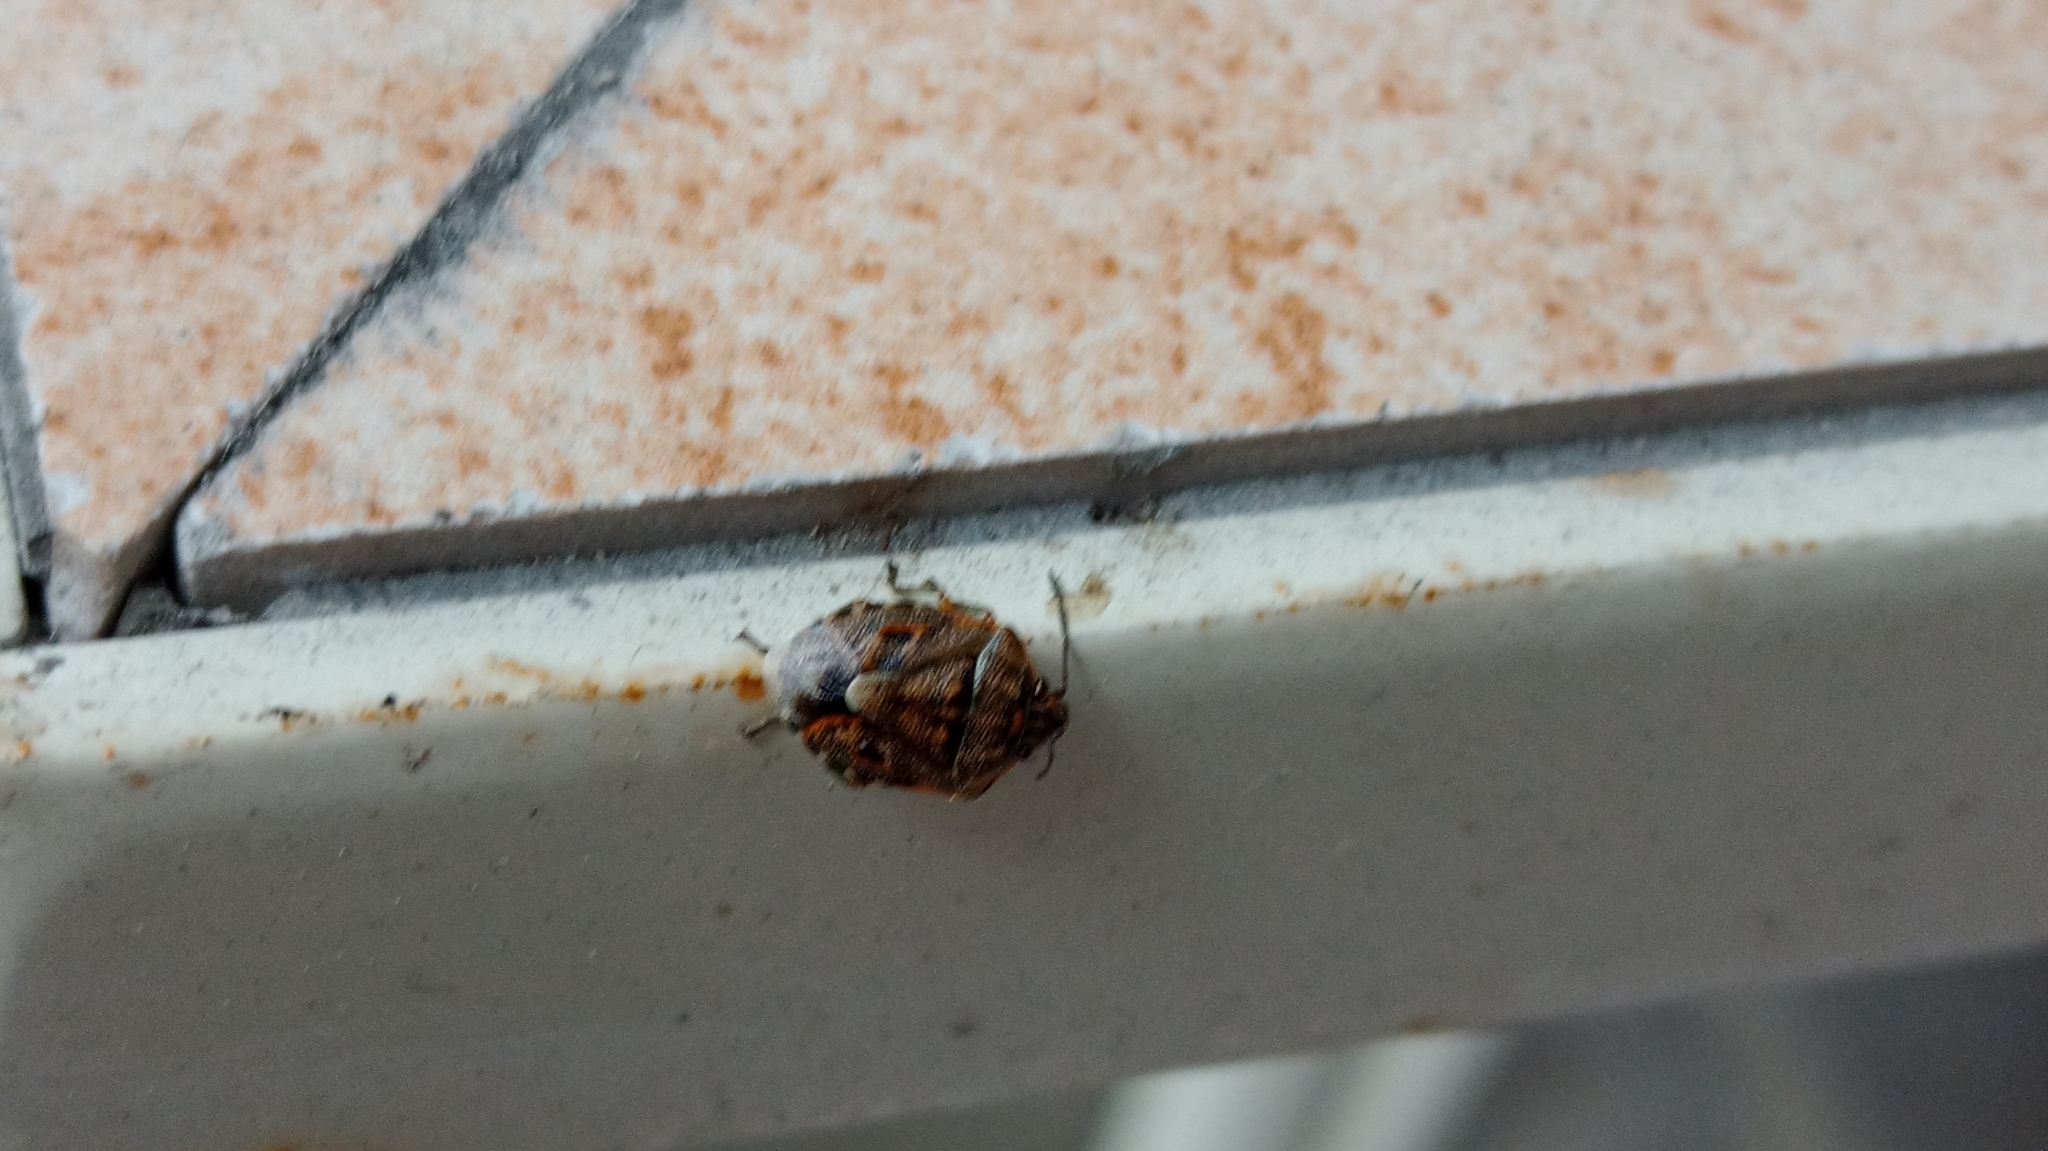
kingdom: Animalia
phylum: Arthropoda
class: Insecta
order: Hemiptera
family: Pentatomidae
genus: Holcogaster
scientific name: Holcogaster fibulata
